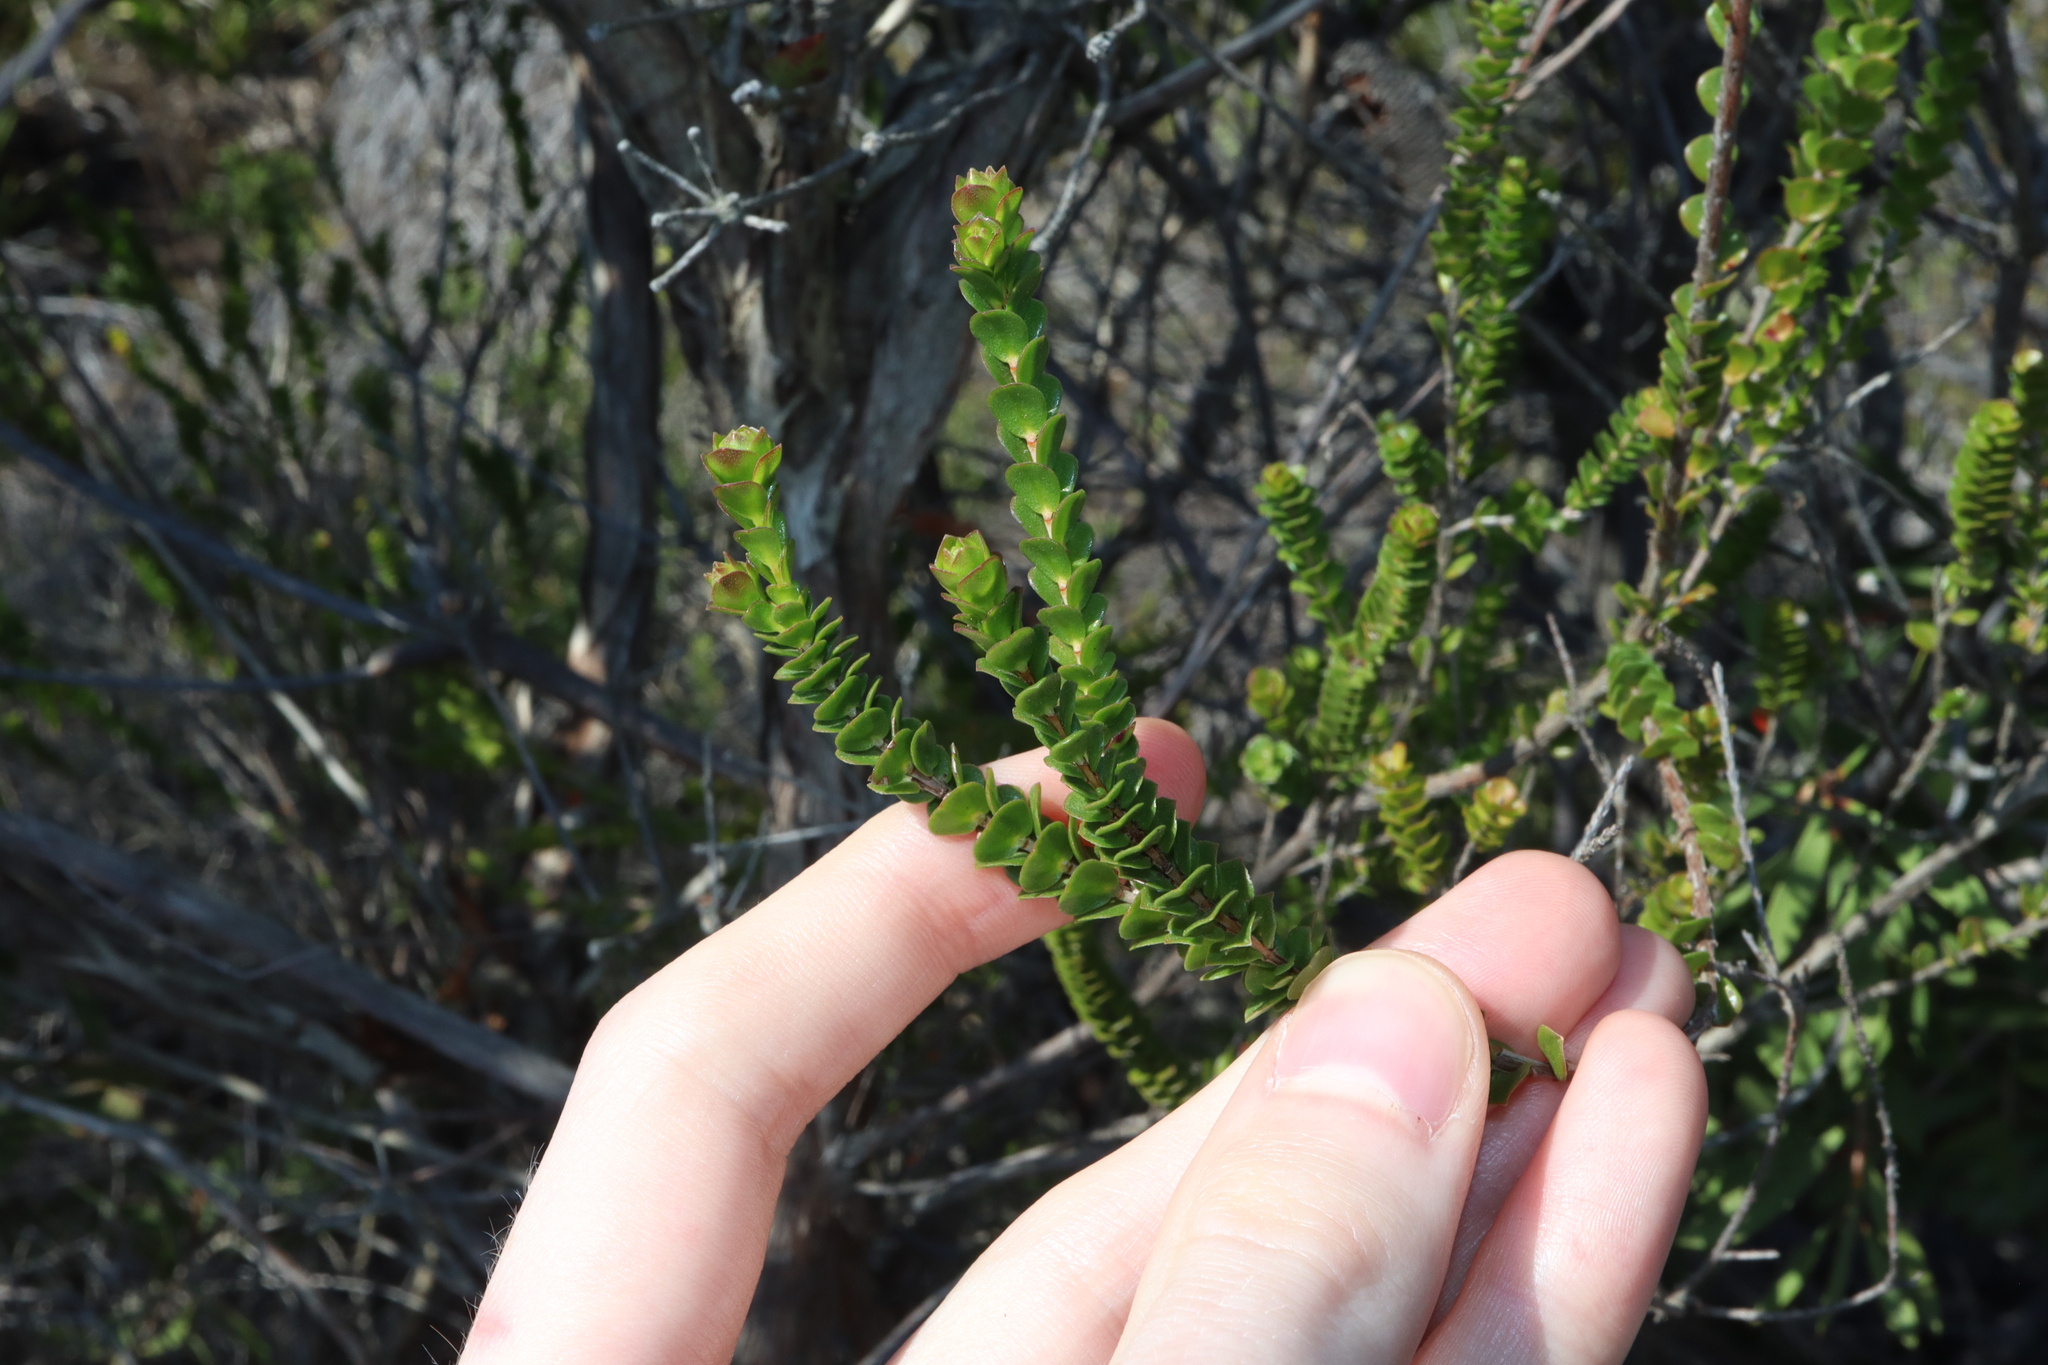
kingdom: Plantae
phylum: Tracheophyta
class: Magnoliopsida
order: Myrtales
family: Myrtaceae
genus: Baeckea
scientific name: Baeckea imbricata
